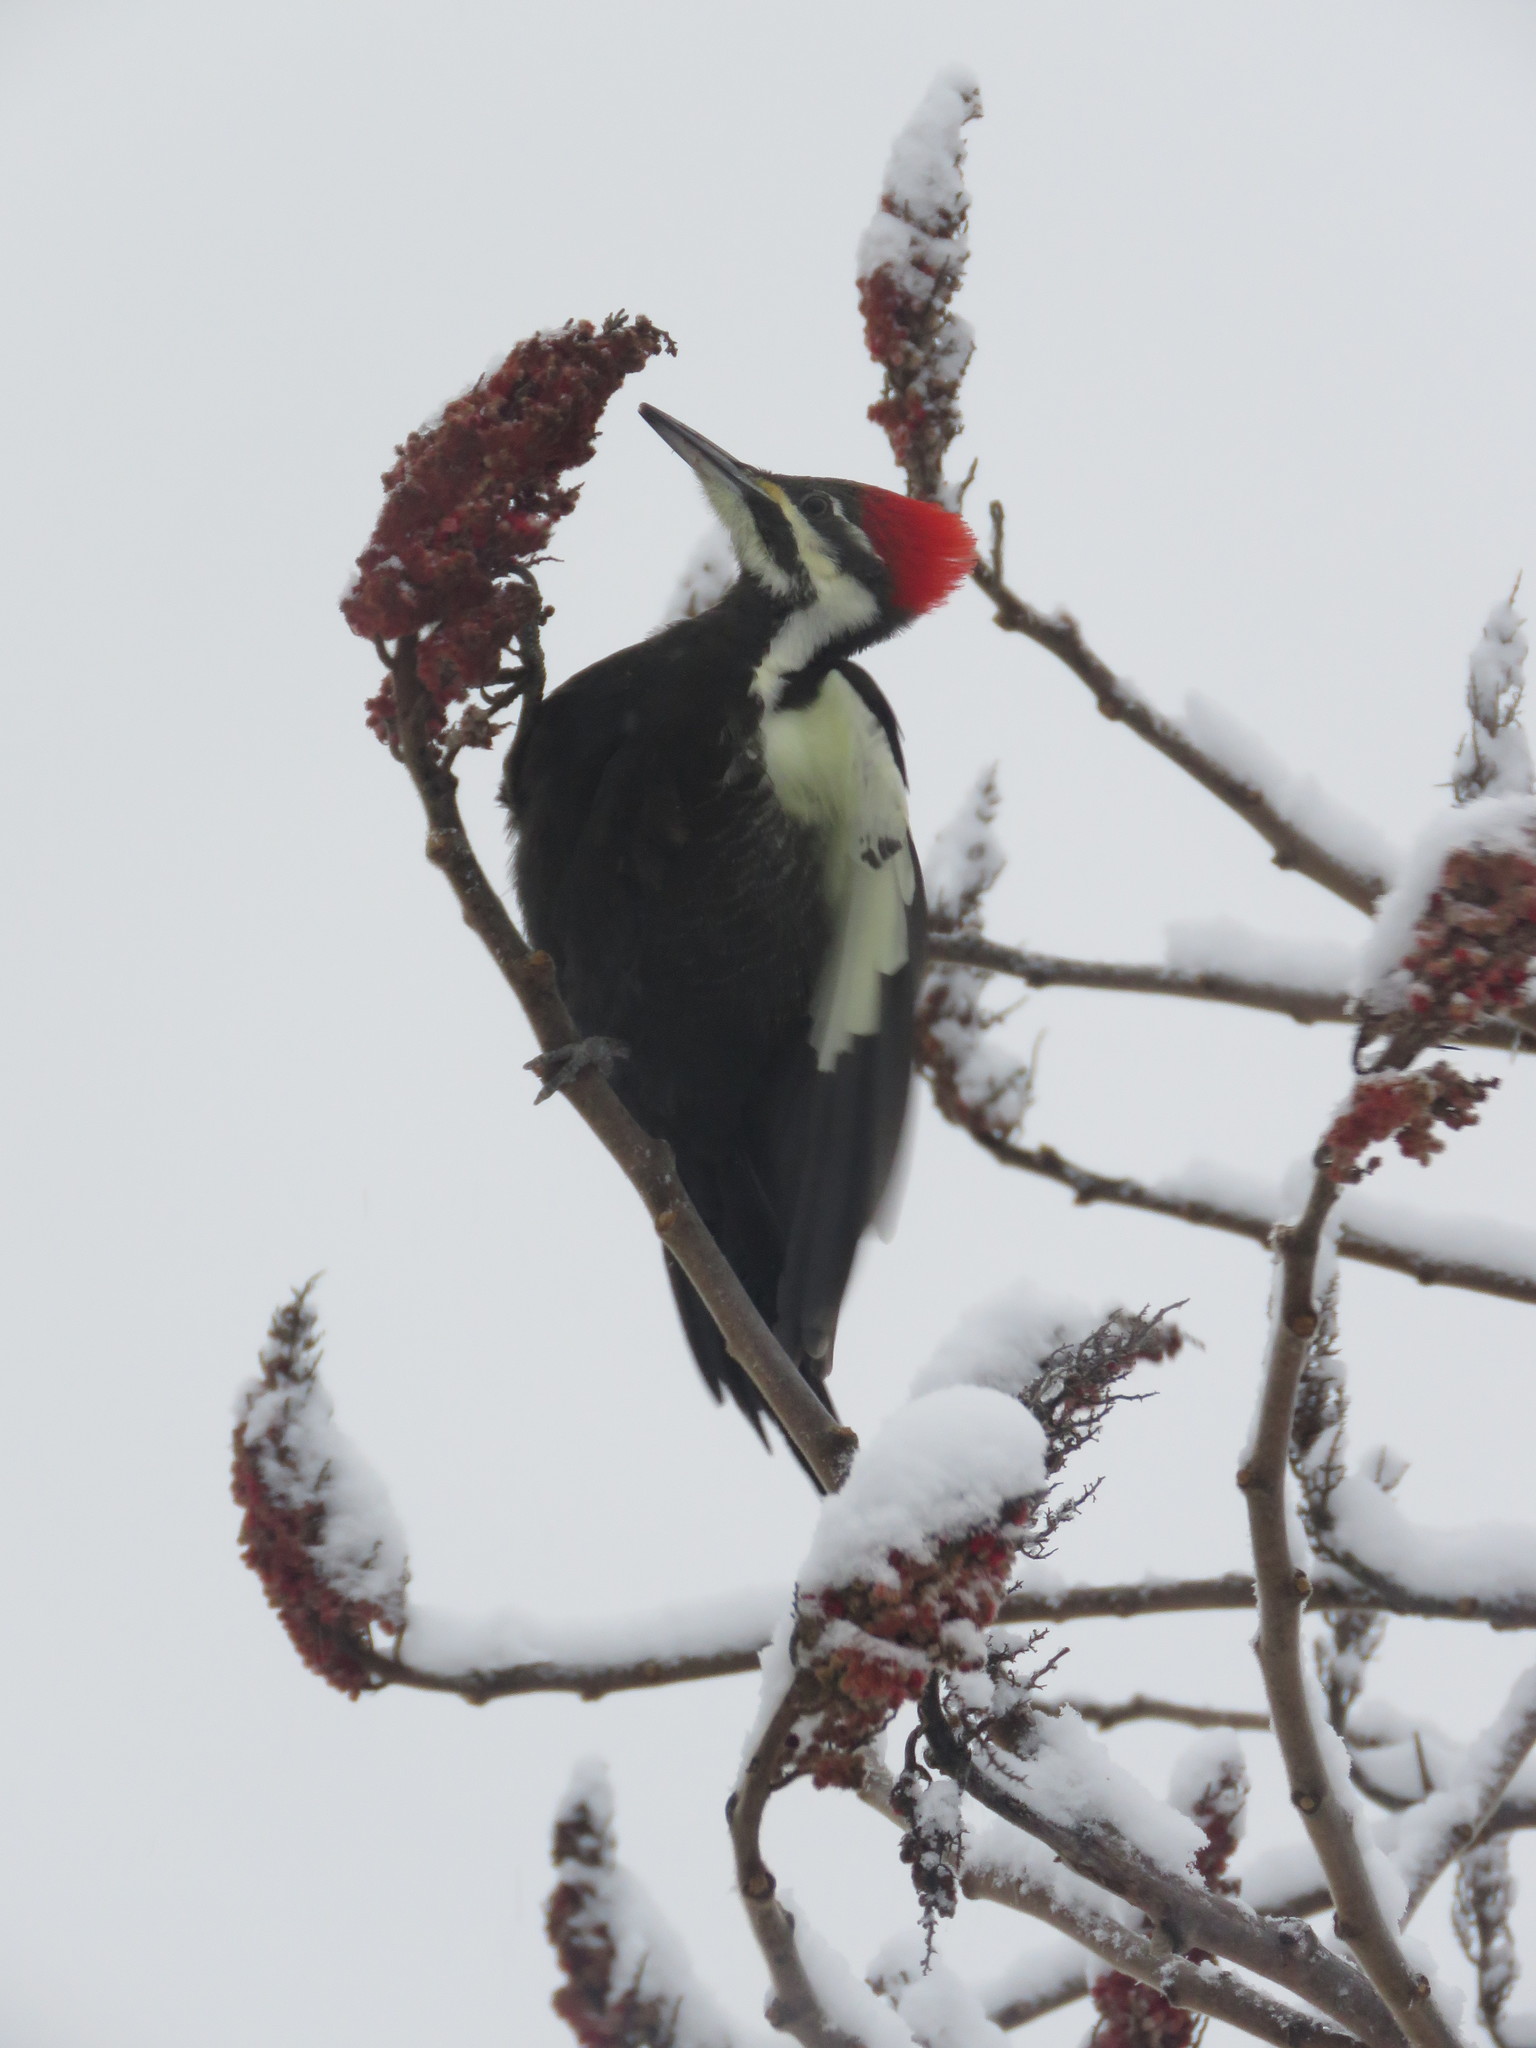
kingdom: Animalia
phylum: Chordata
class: Aves
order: Piciformes
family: Picidae
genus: Dryocopus
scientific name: Dryocopus pileatus
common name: Pileated woodpecker
